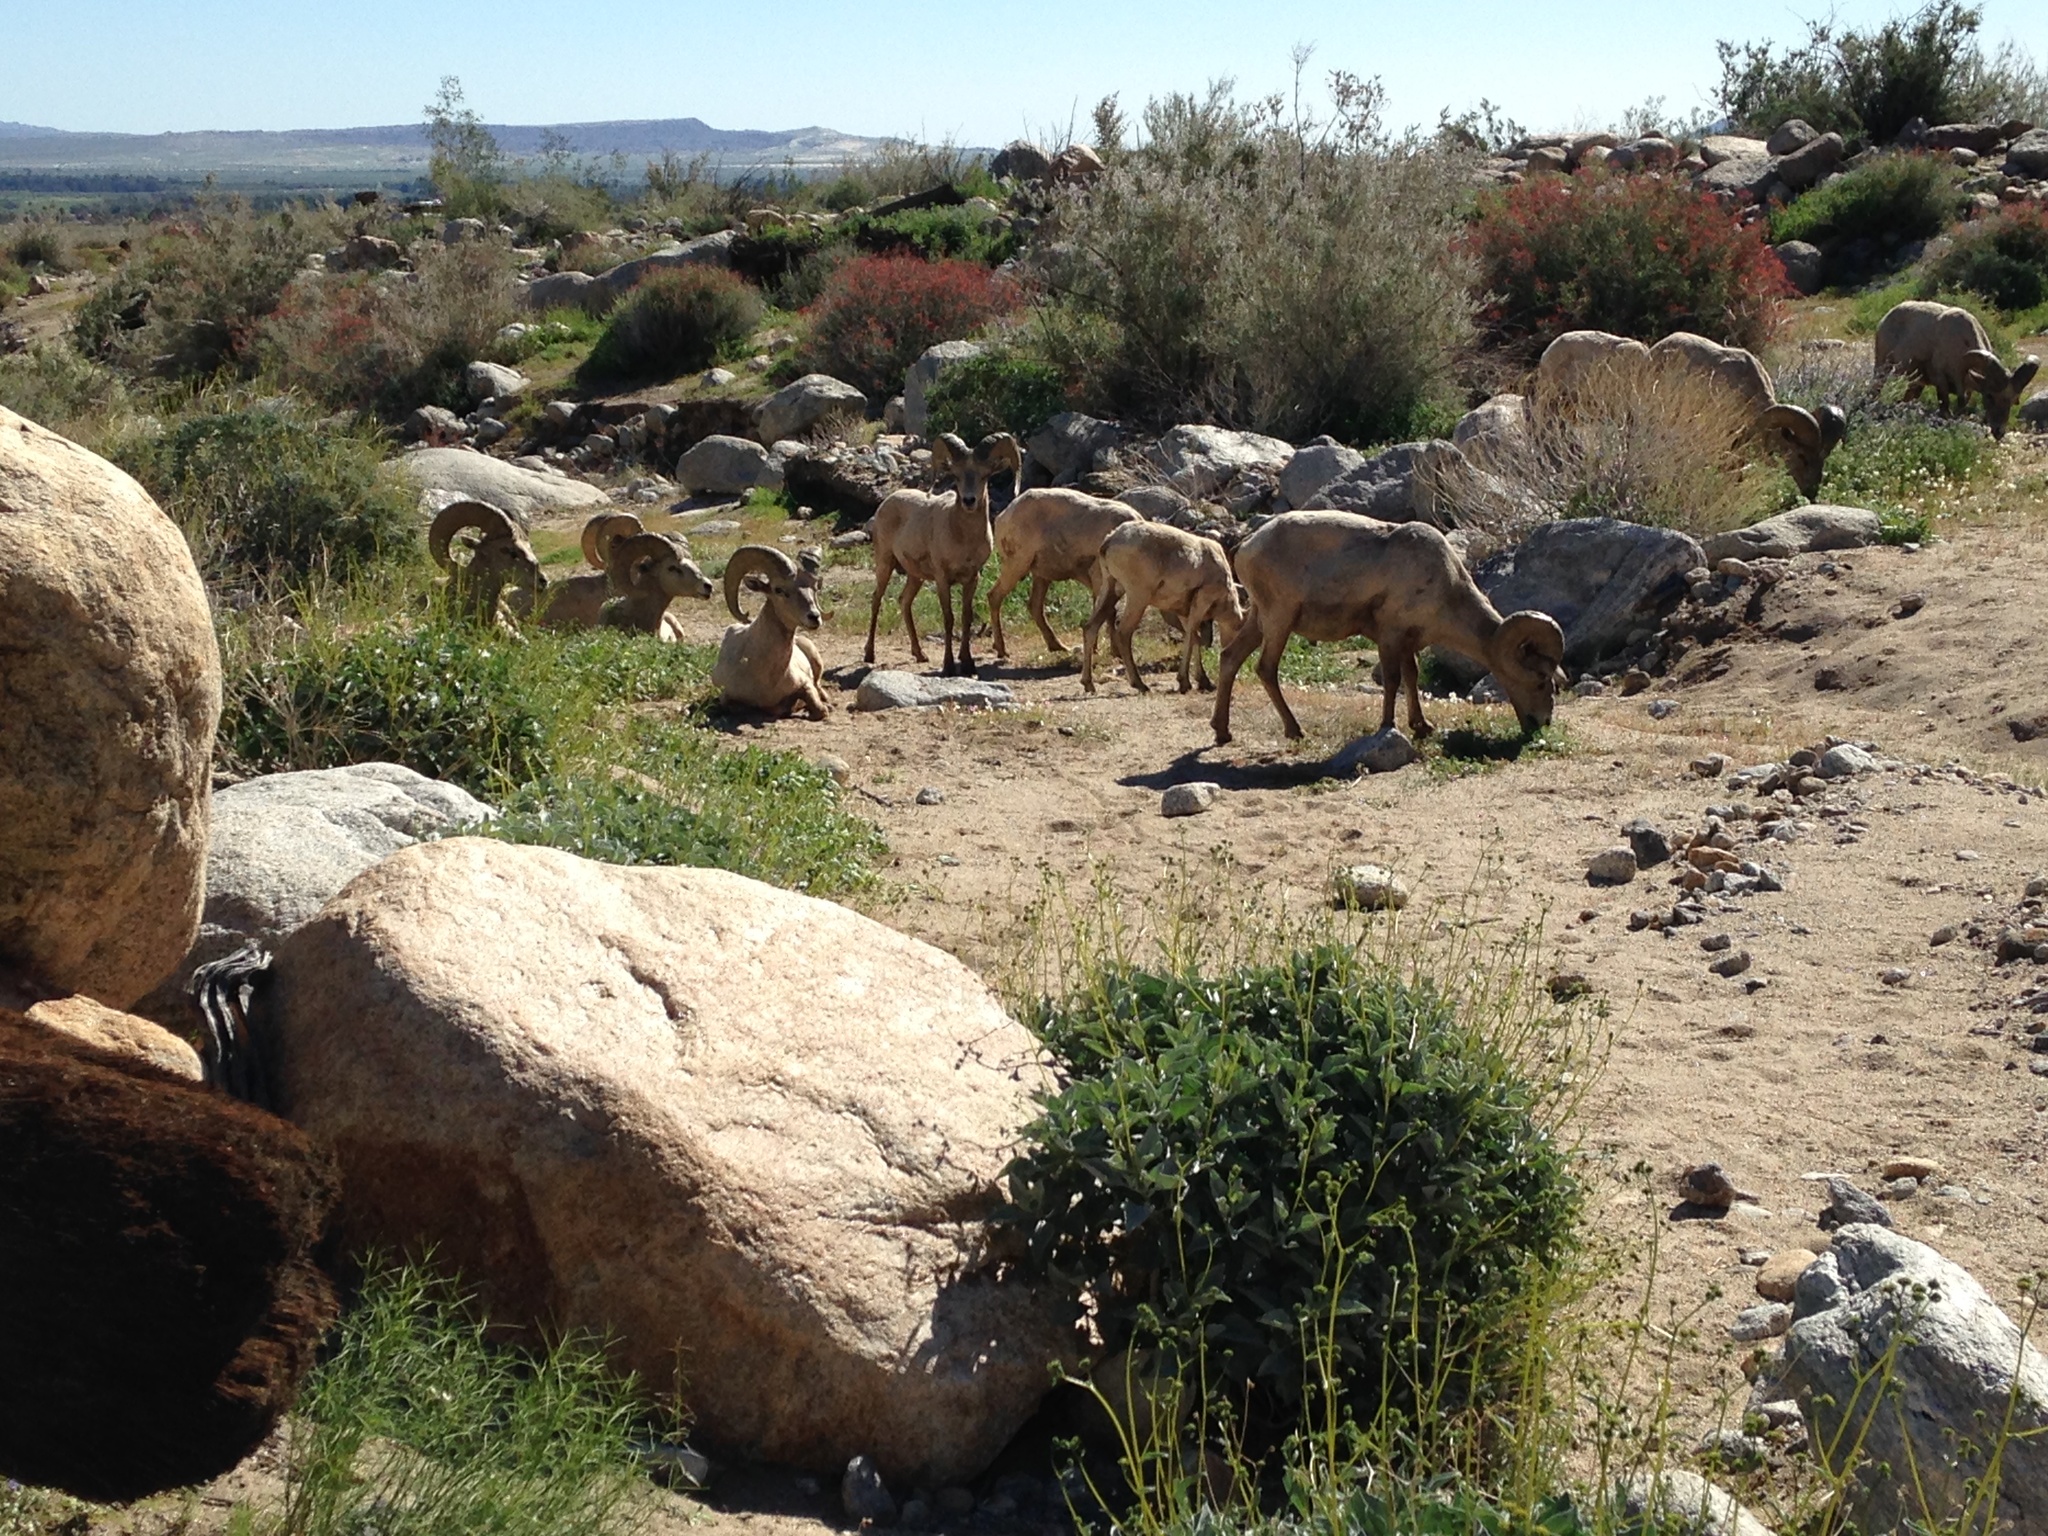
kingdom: Animalia
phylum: Chordata
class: Mammalia
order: Artiodactyla
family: Bovidae
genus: Ovis
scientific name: Ovis canadensis
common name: Bighorn sheep
